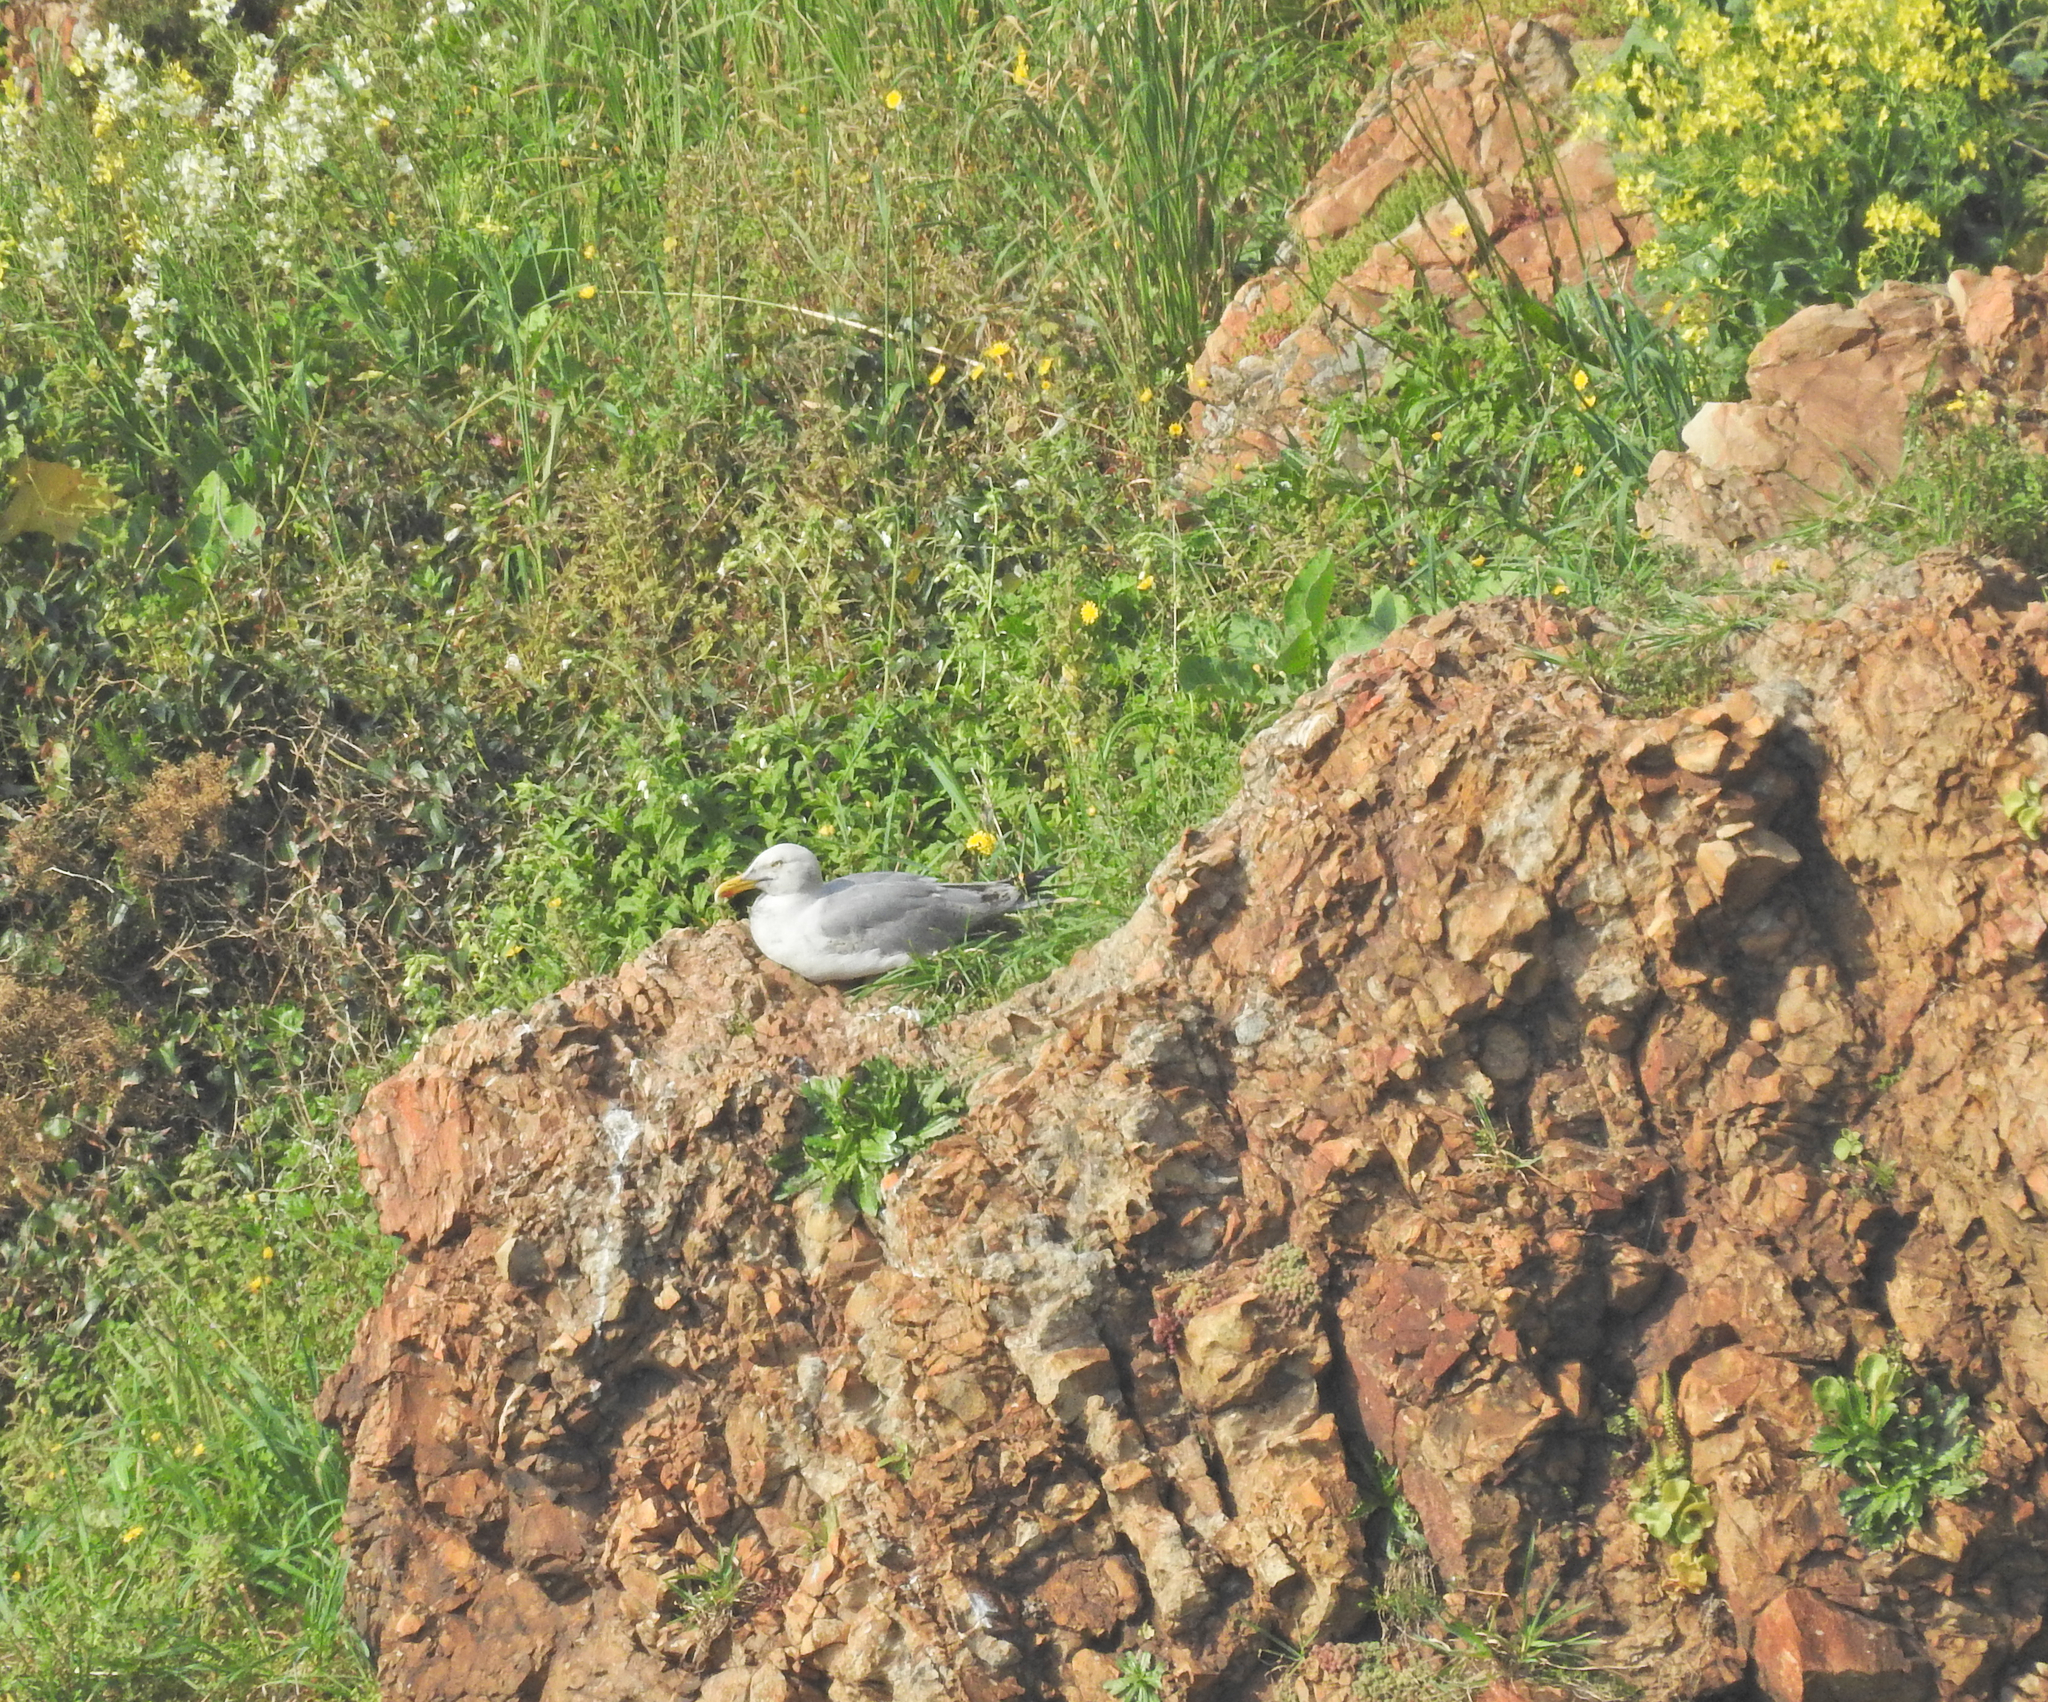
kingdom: Animalia
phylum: Chordata
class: Aves
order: Charadriiformes
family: Laridae
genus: Larus
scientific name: Larus michahellis
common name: Yellow-legged gull
